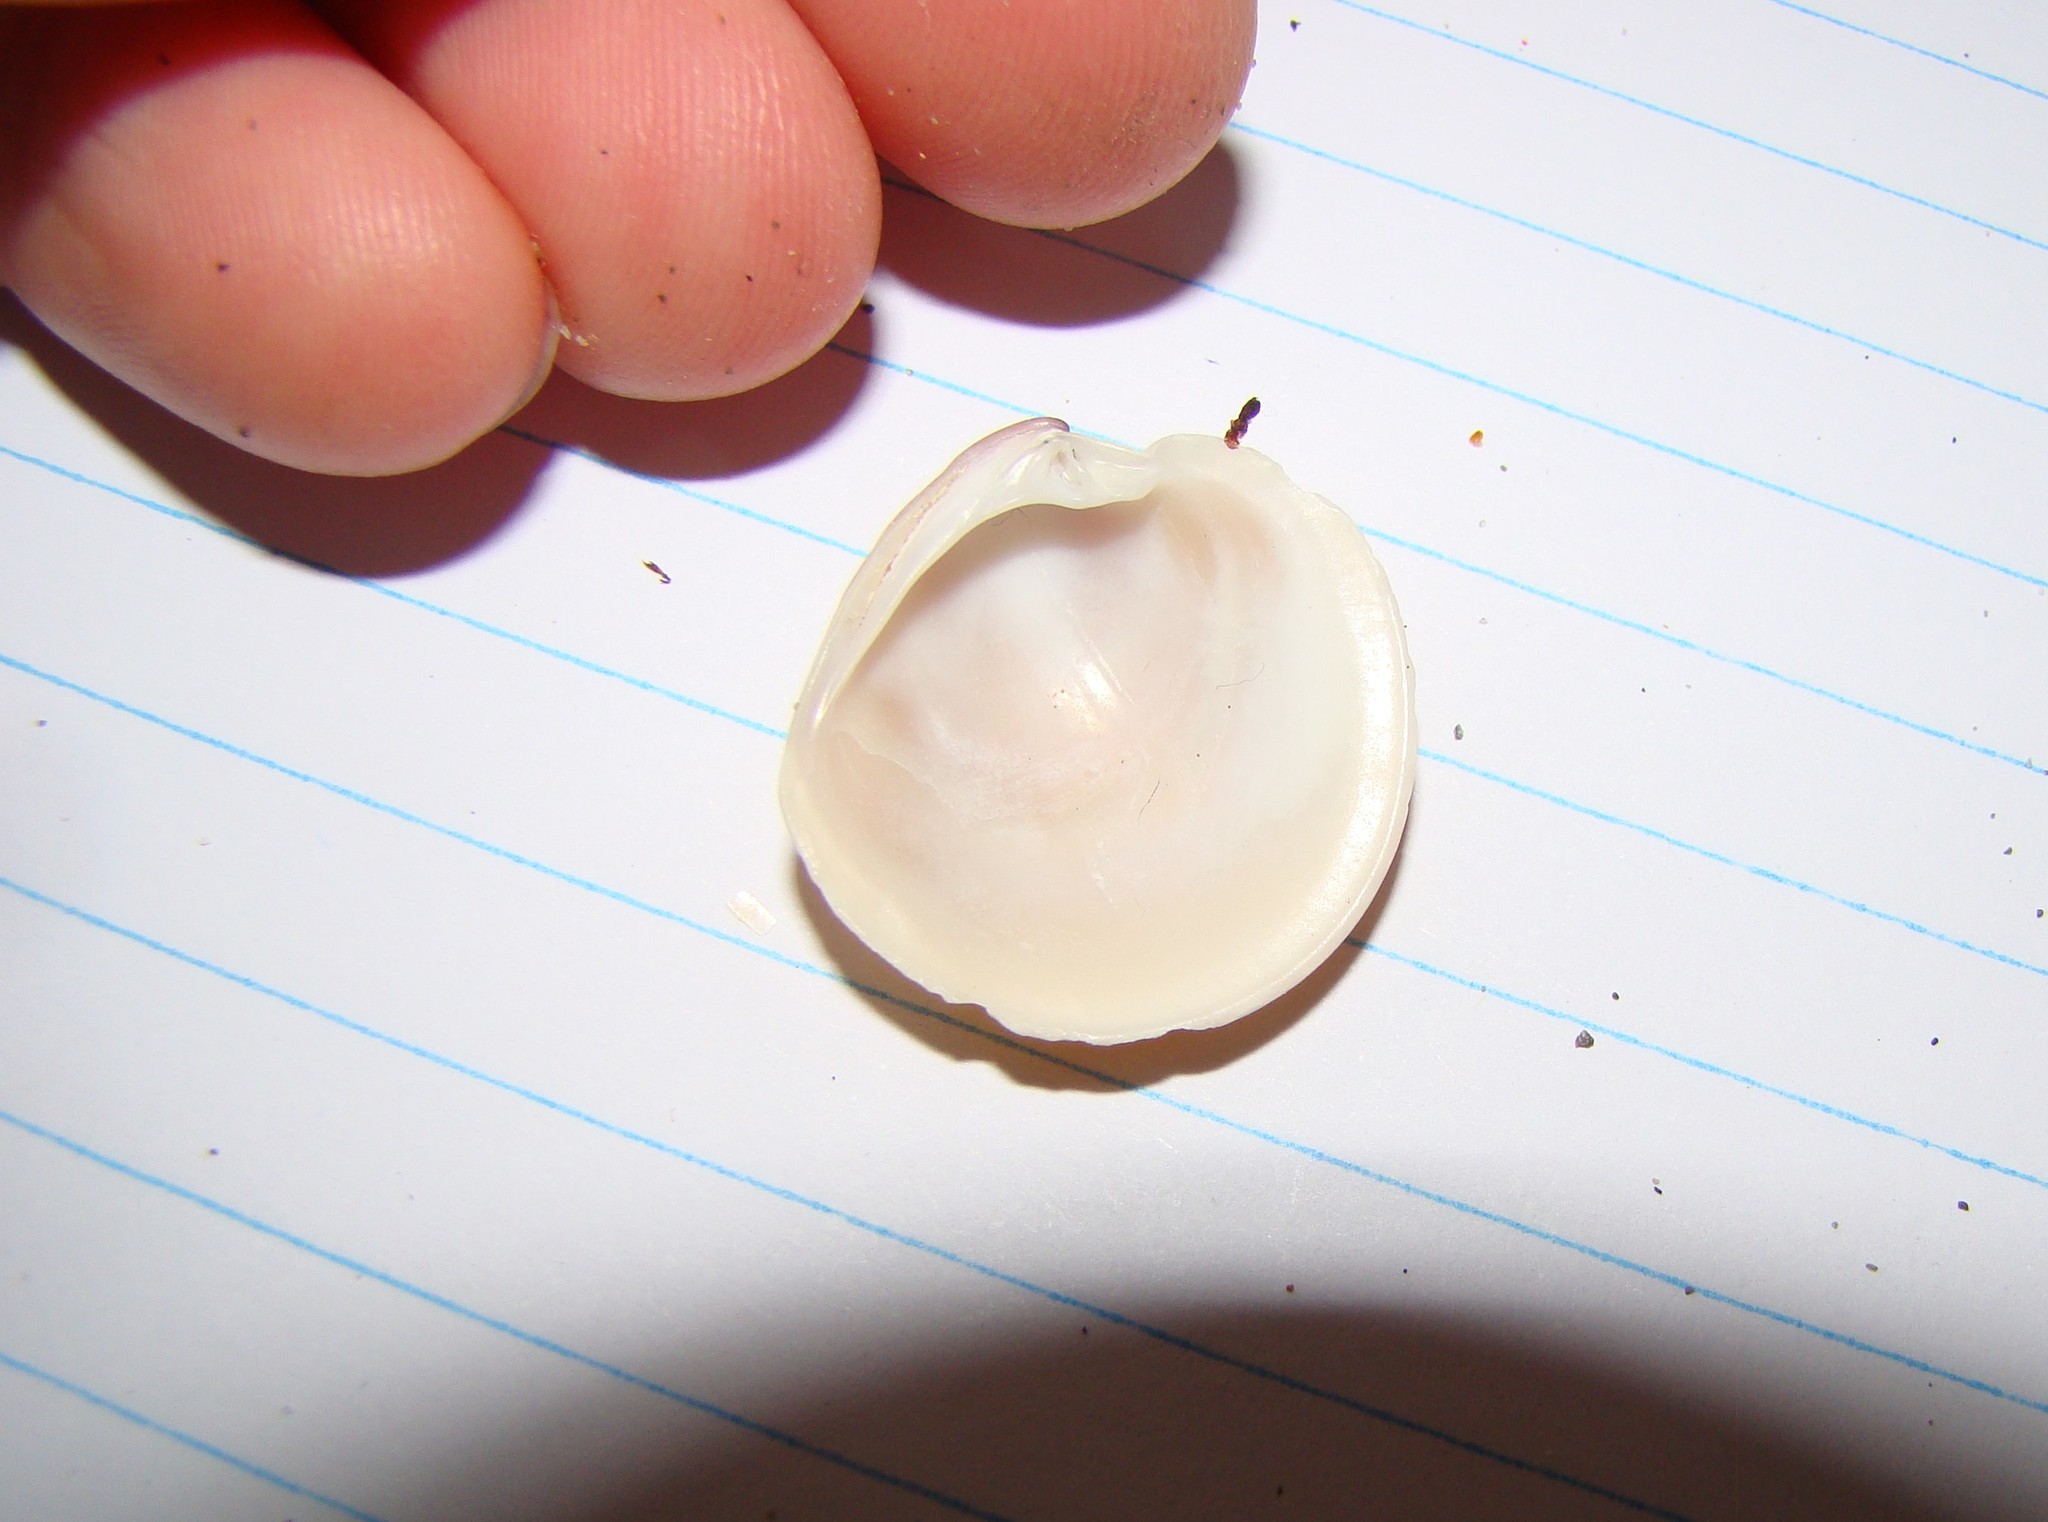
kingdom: Animalia
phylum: Mollusca
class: Bivalvia
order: Venerida
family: Veneridae
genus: Dosinia
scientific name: Dosinia anus
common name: Old-woman dosinia
